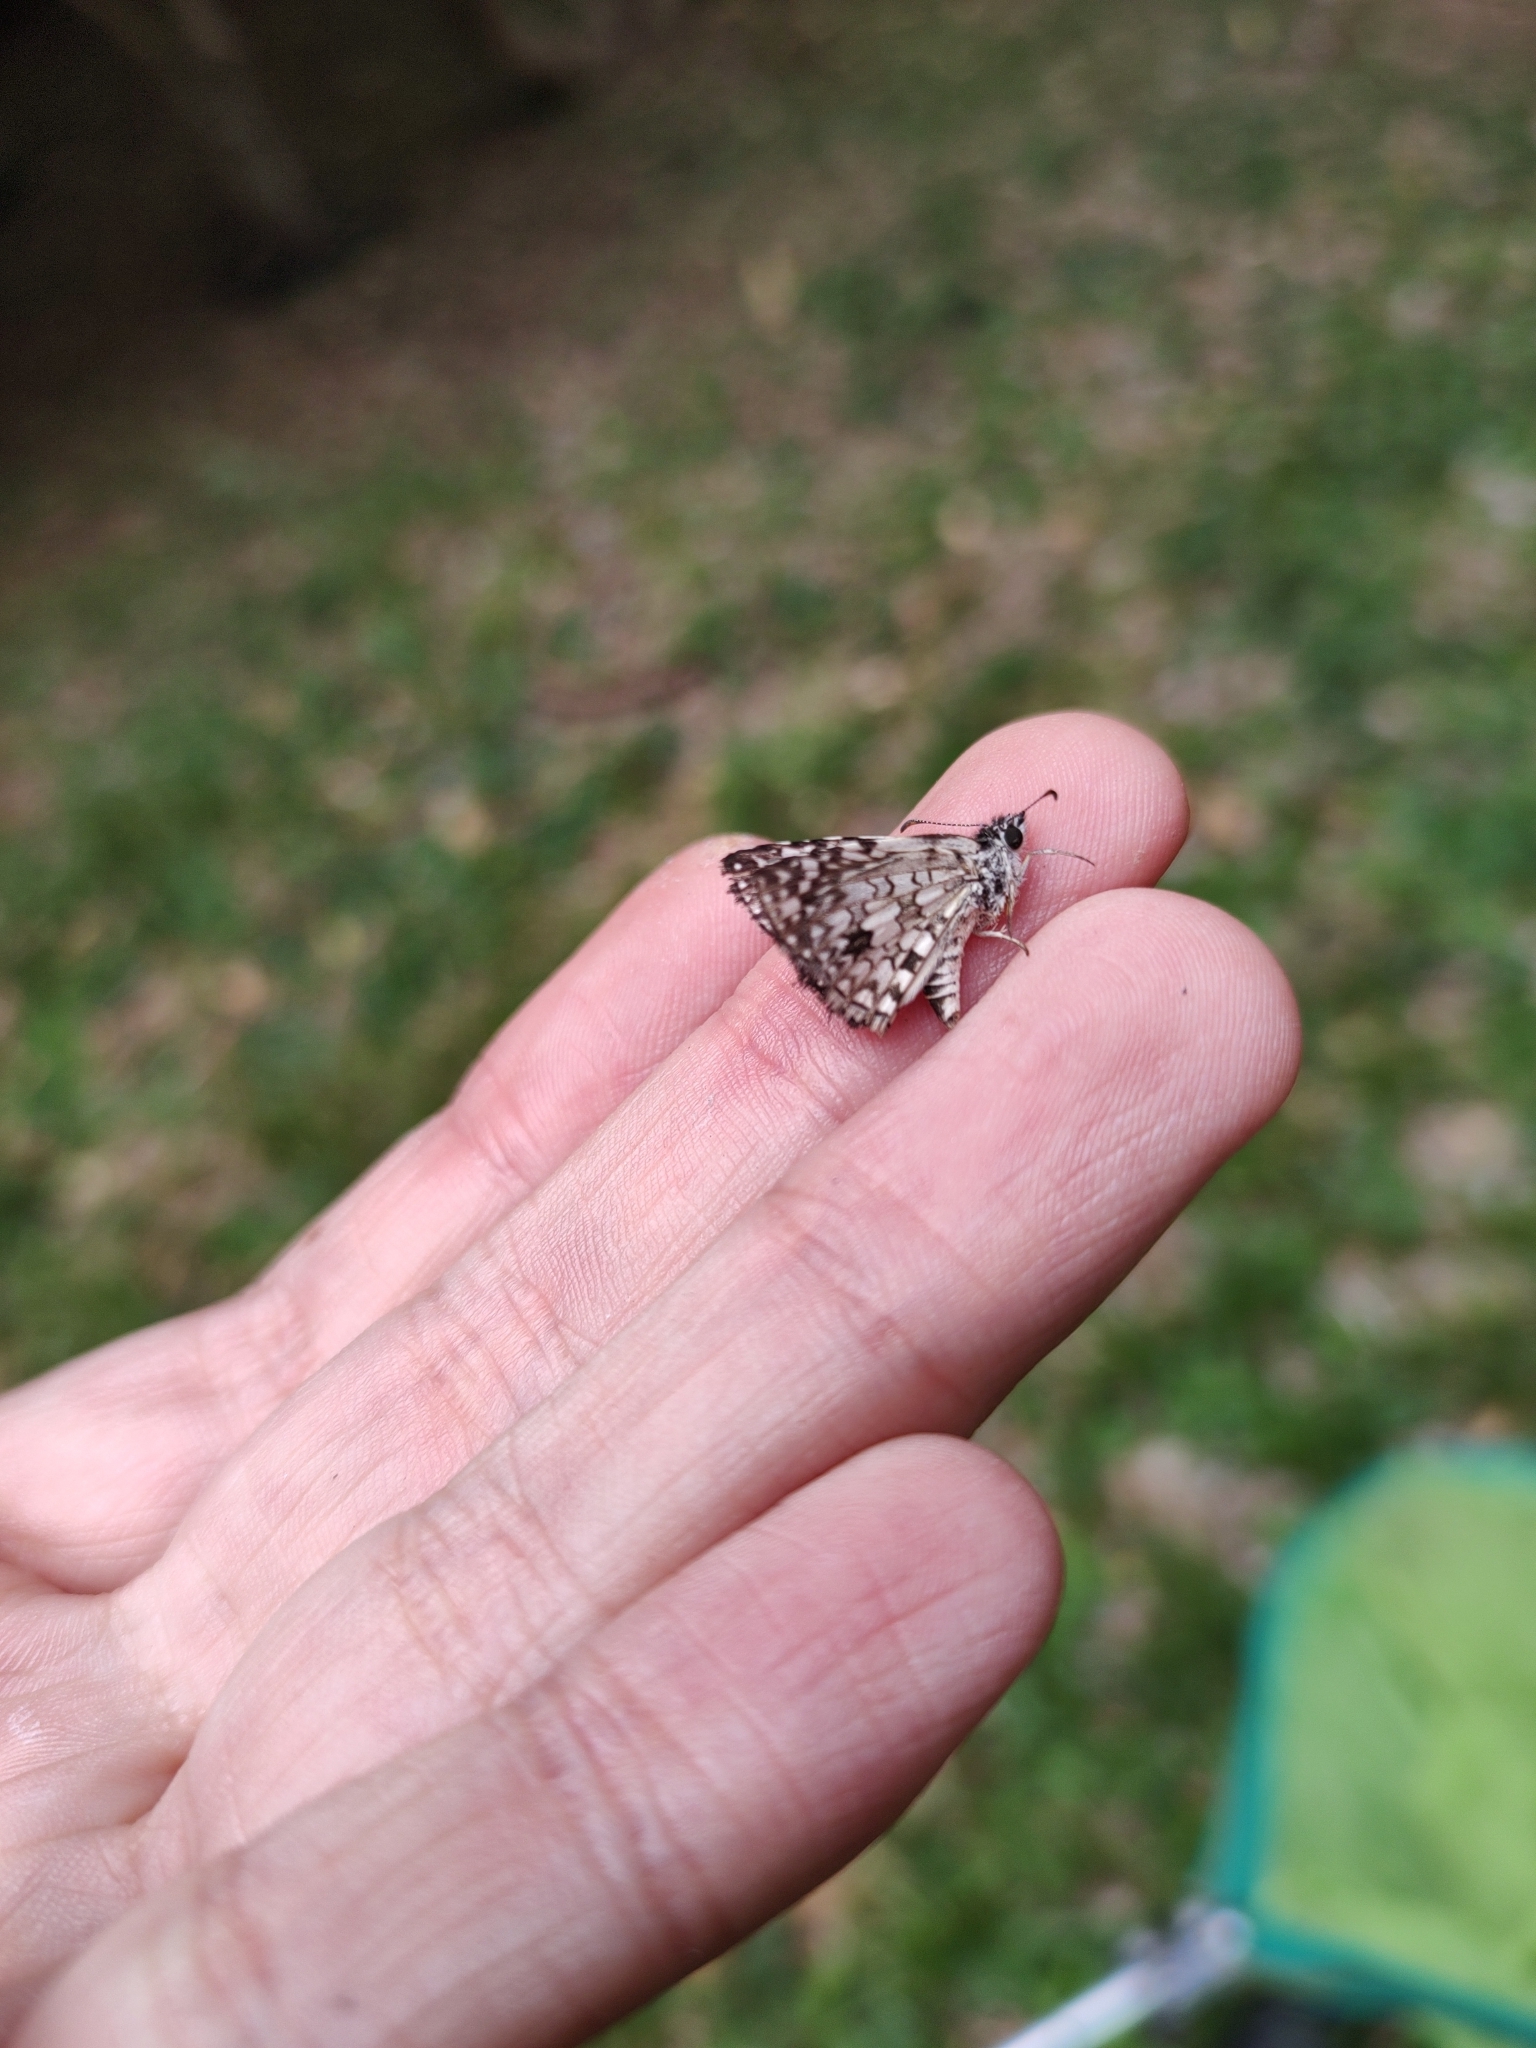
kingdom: Animalia
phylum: Arthropoda
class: Insecta
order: Lepidoptera
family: Hesperiidae
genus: Pyrgus
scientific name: Pyrgus oileus
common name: Tropical checkered-skipper
